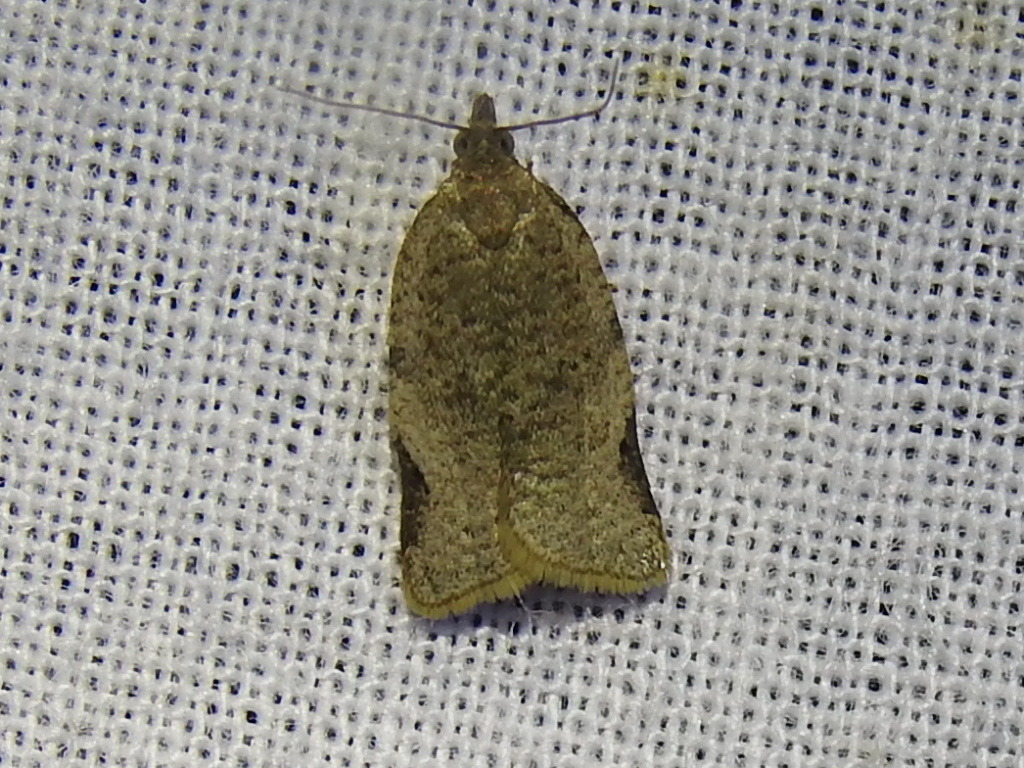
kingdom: Animalia
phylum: Arthropoda
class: Insecta
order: Lepidoptera
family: Tortricidae
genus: Clepsis
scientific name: Clepsis virescana
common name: Greenish apple moth
